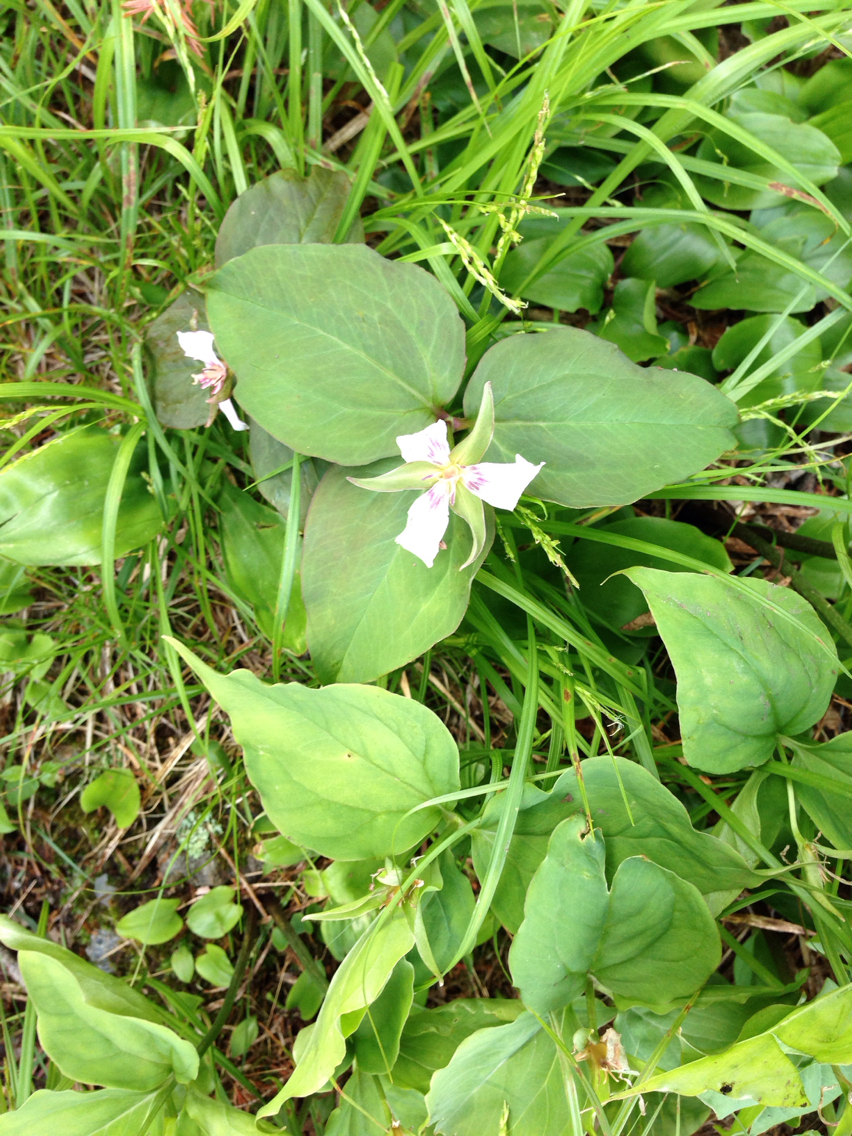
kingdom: Plantae
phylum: Tracheophyta
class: Liliopsida
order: Liliales
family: Melanthiaceae
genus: Trillium
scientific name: Trillium undulatum
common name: Paint trillium
